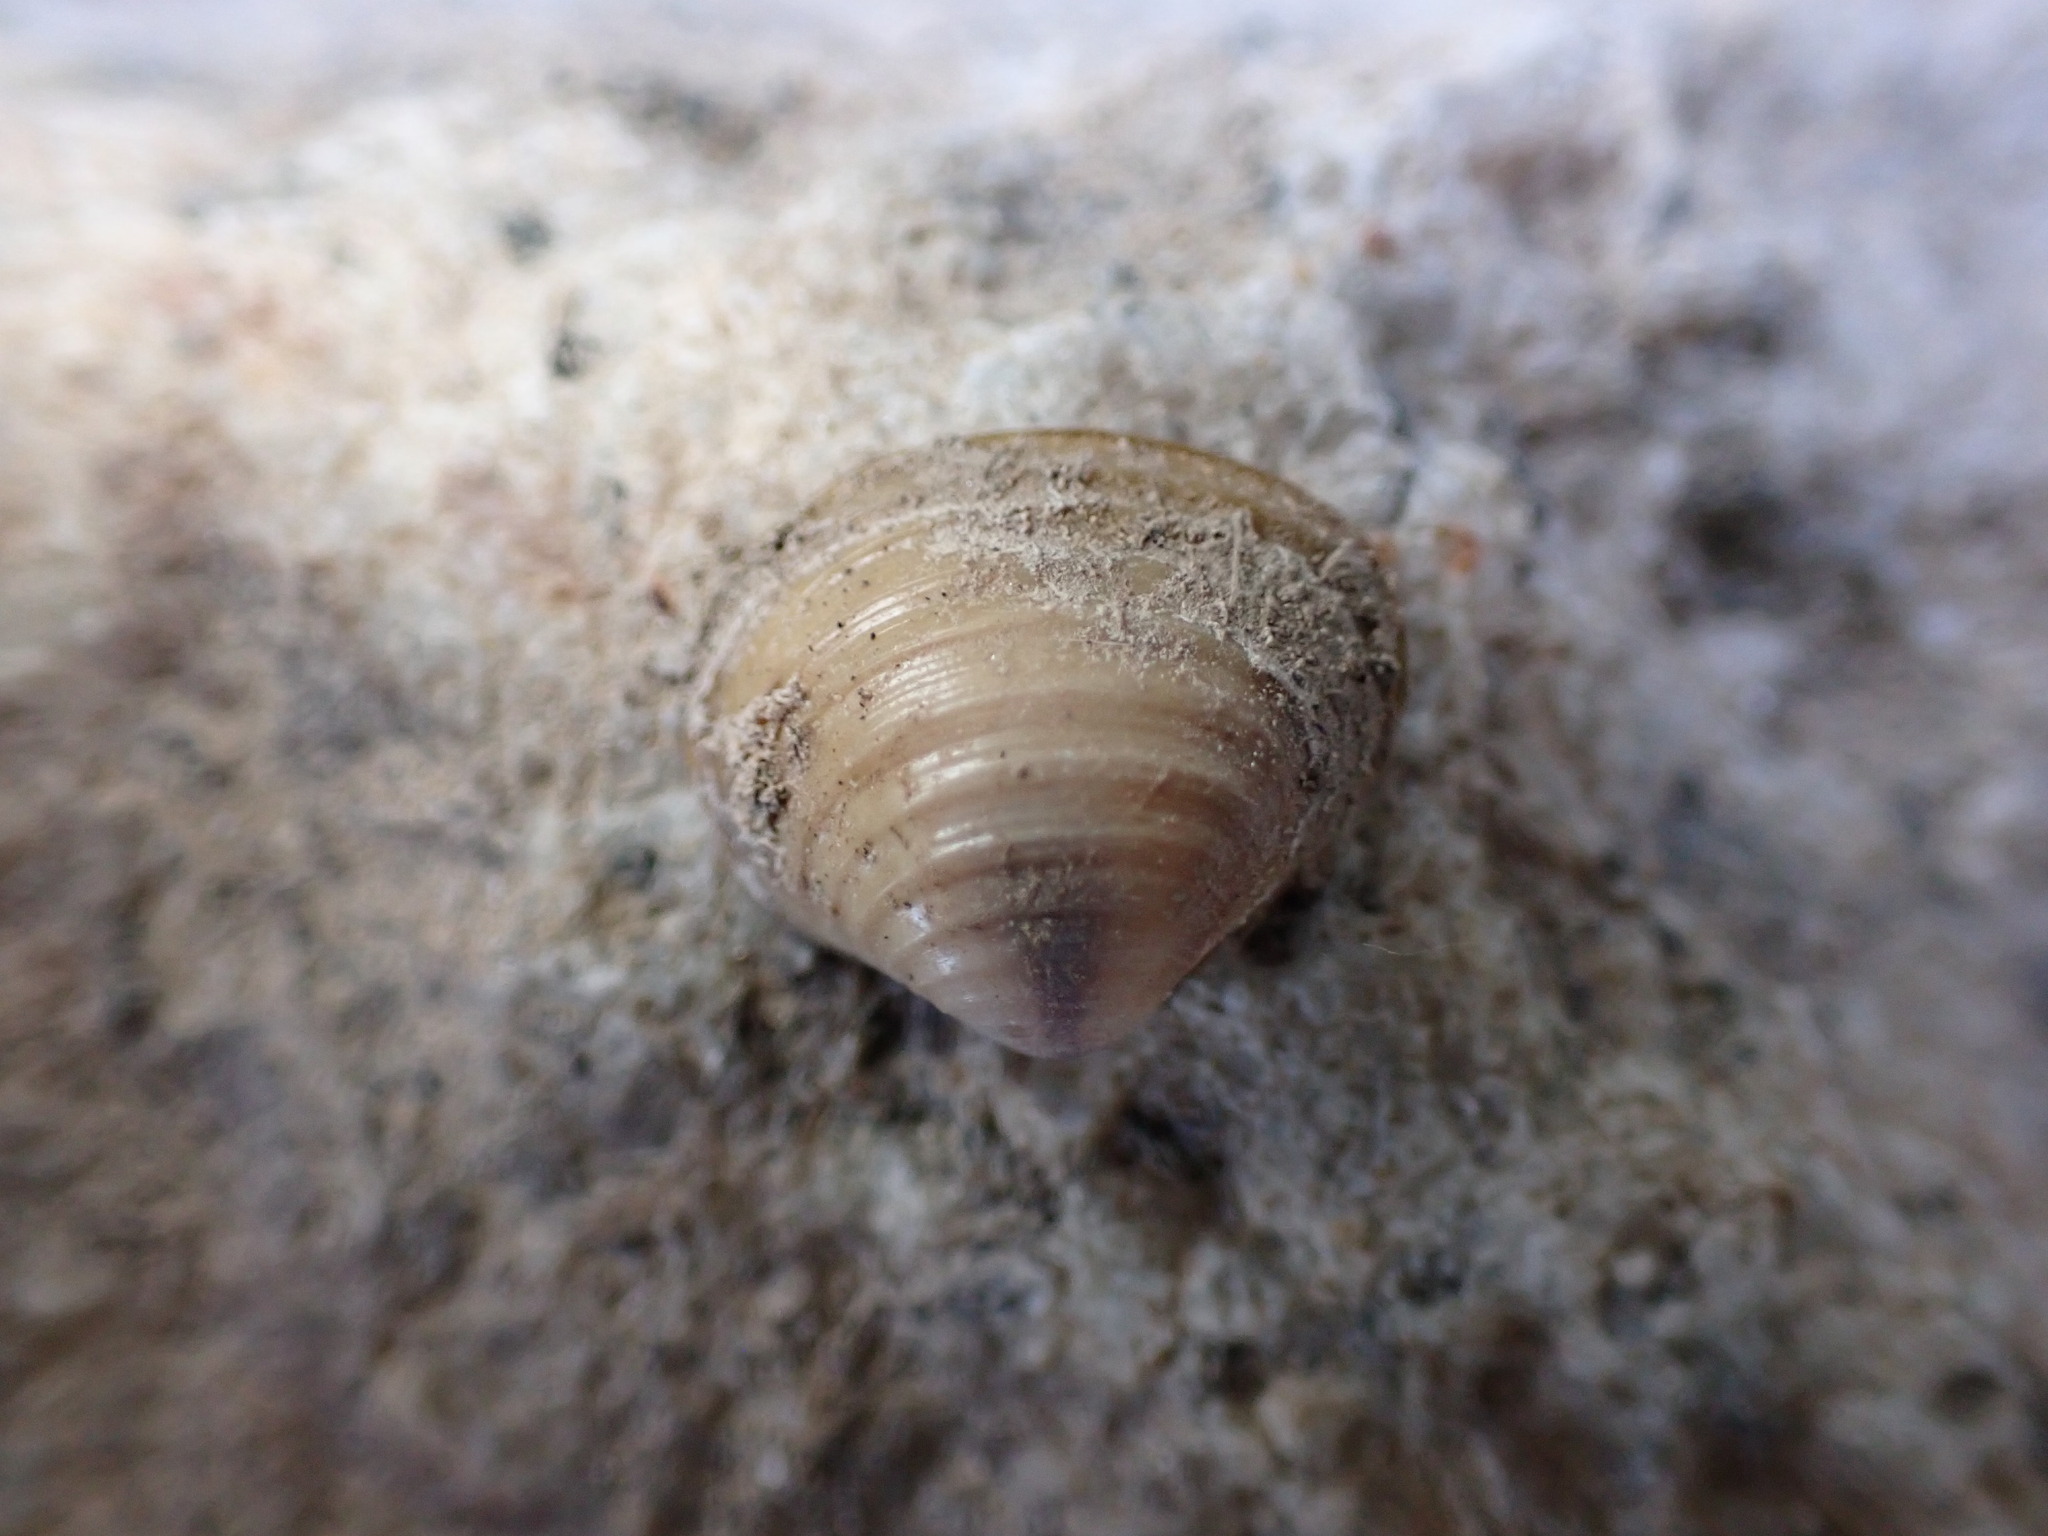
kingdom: Animalia
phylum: Mollusca
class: Bivalvia
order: Venerida
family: Cyrenidae
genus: Corbicula
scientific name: Corbicula fluminea
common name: Asian clam
